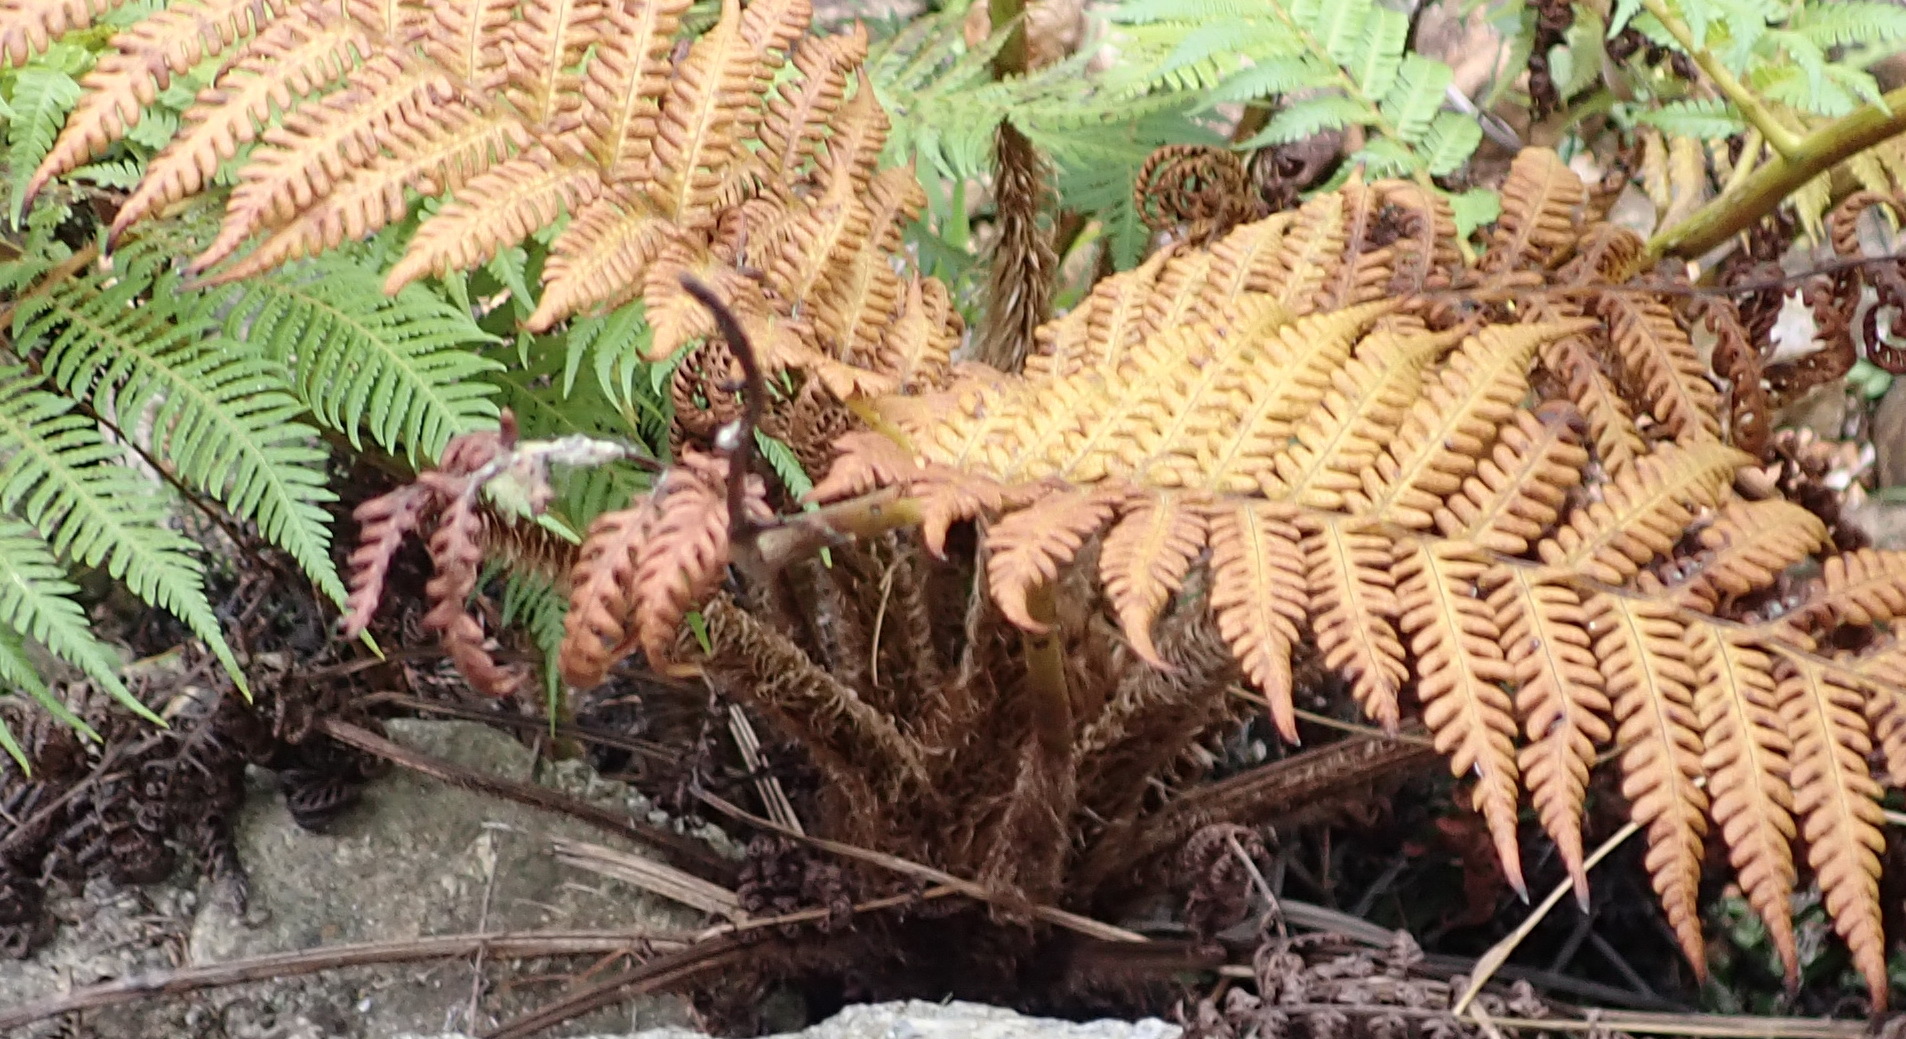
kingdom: Plantae
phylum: Tracheophyta
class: Polypodiopsida
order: Cyatheales
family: Cyatheaceae
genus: Sphaeropteris
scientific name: Sphaeropteris cooperi
